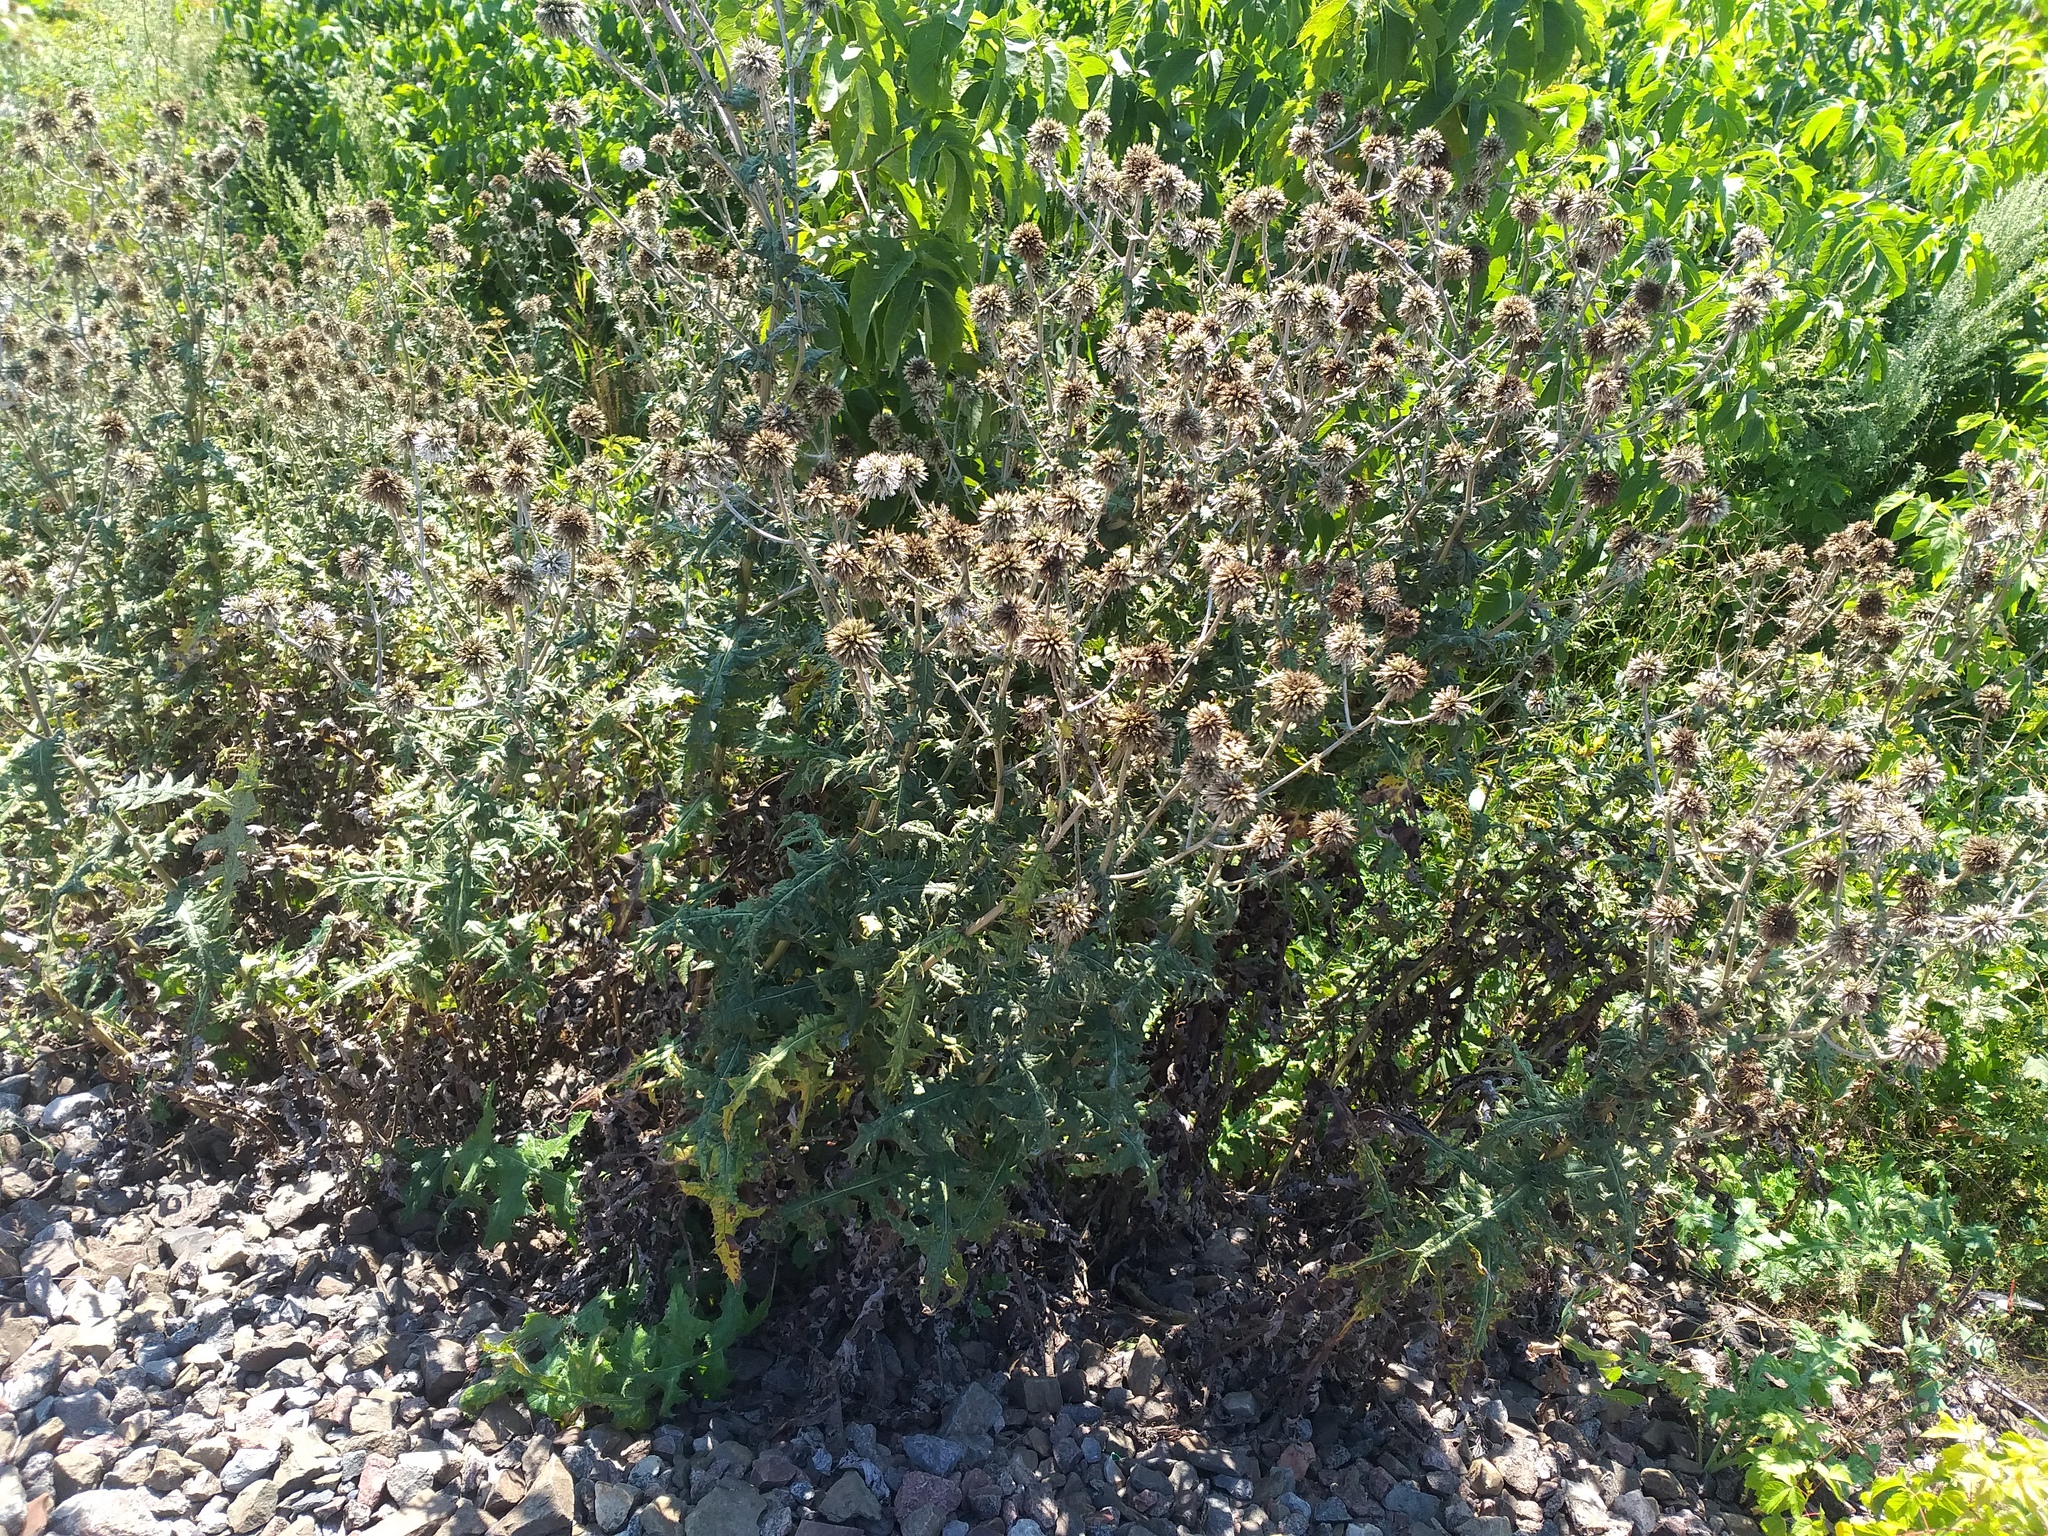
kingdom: Plantae
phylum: Tracheophyta
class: Magnoliopsida
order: Asterales
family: Asteraceae
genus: Echinops
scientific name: Echinops sphaerocephalus
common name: Glandular globe-thistle
